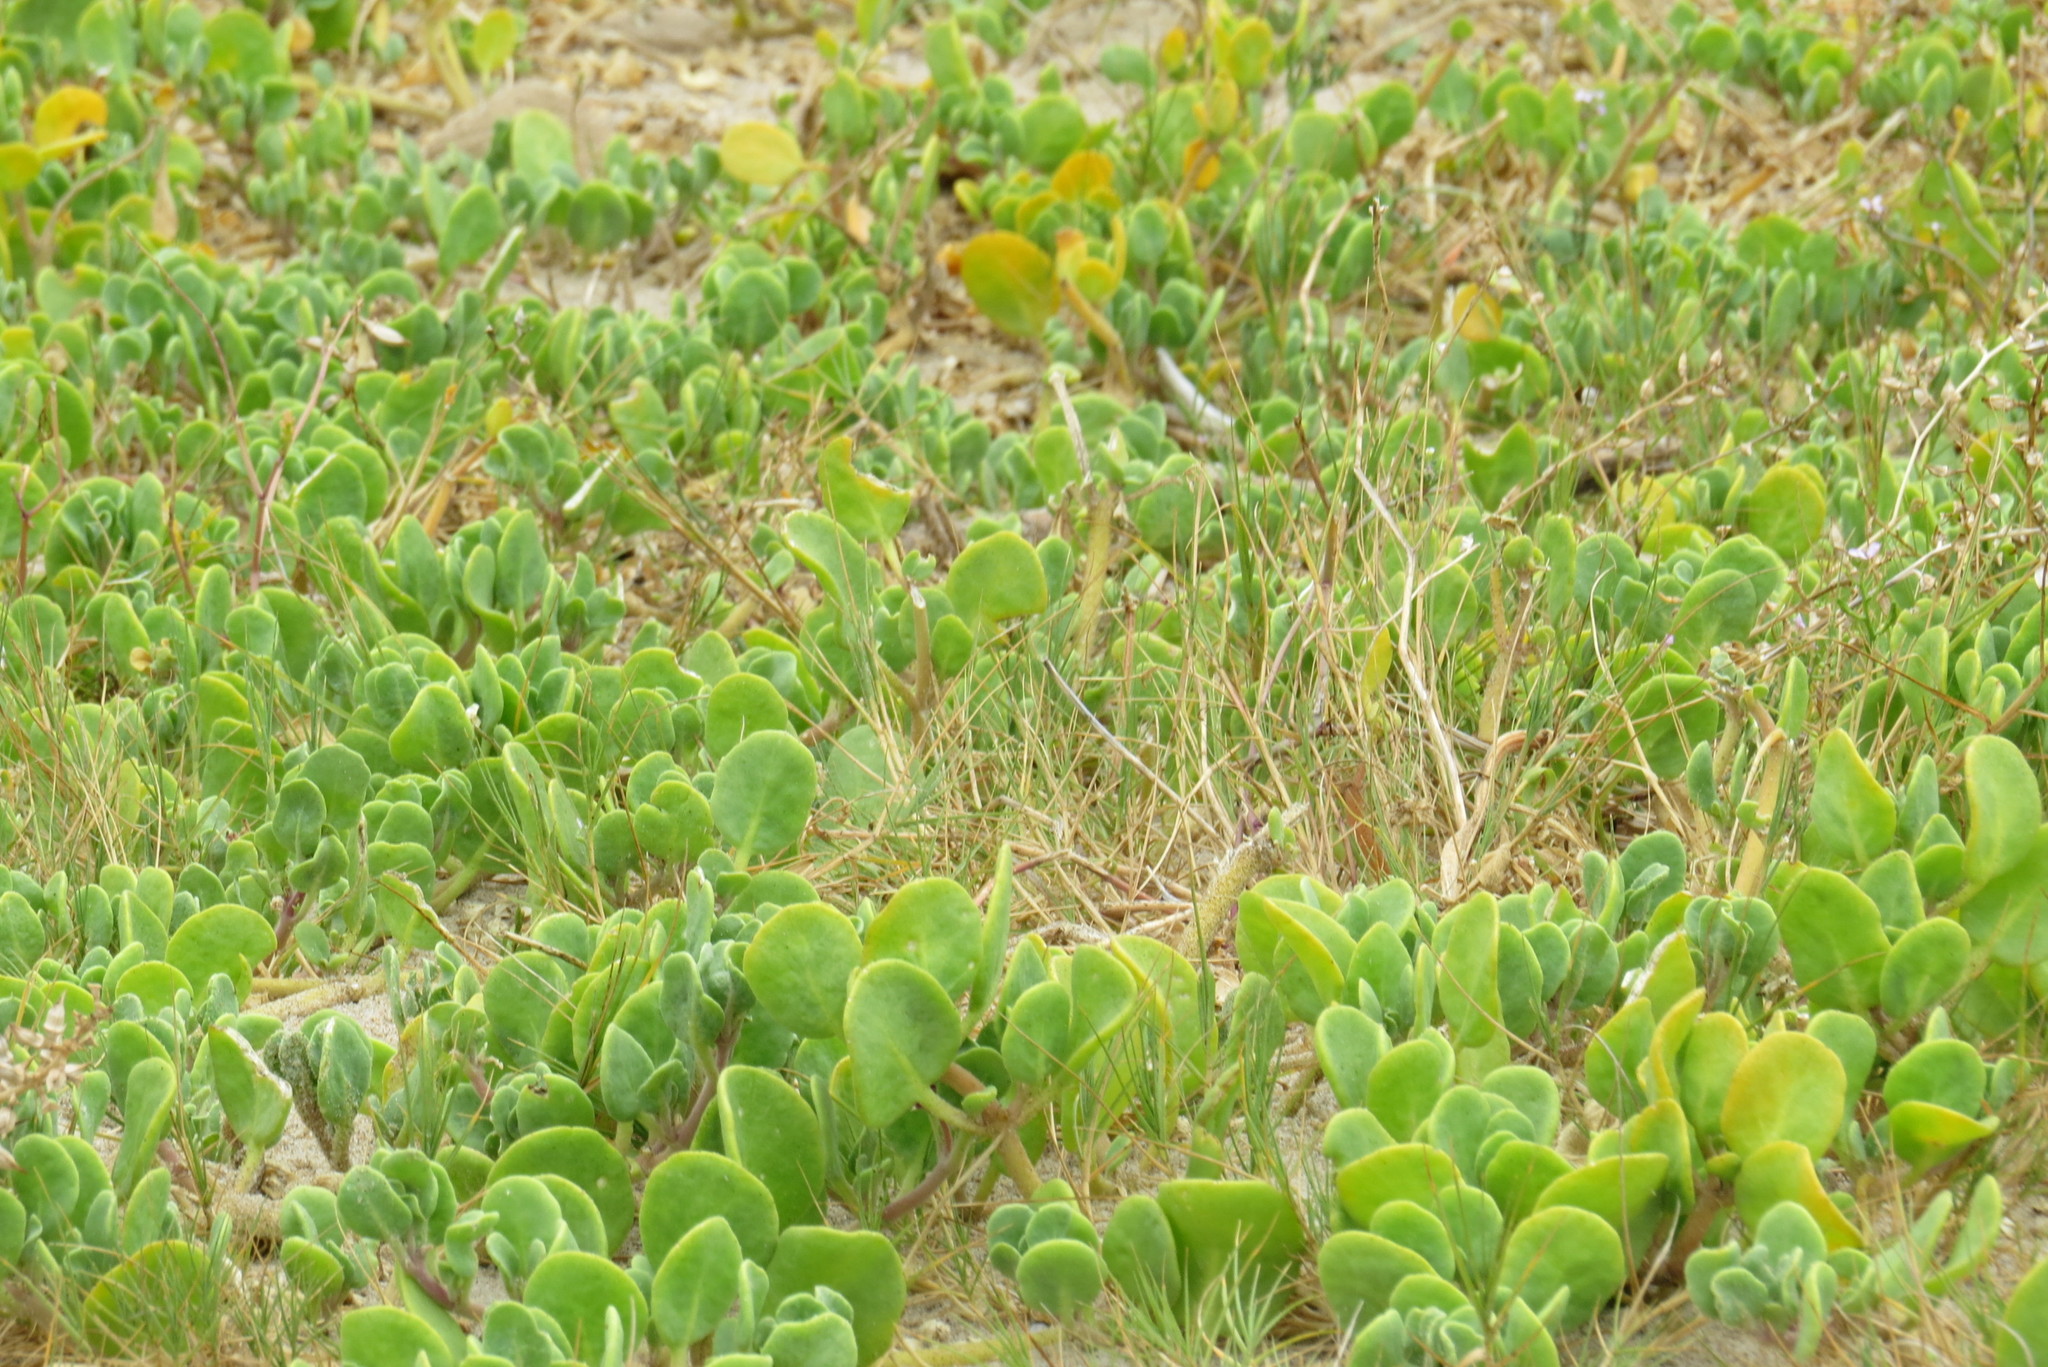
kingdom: Plantae
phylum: Tracheophyta
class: Magnoliopsida
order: Caryophyllales
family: Nyctaginaceae
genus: Abronia
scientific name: Abronia maritima
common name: Red sand-verbena
